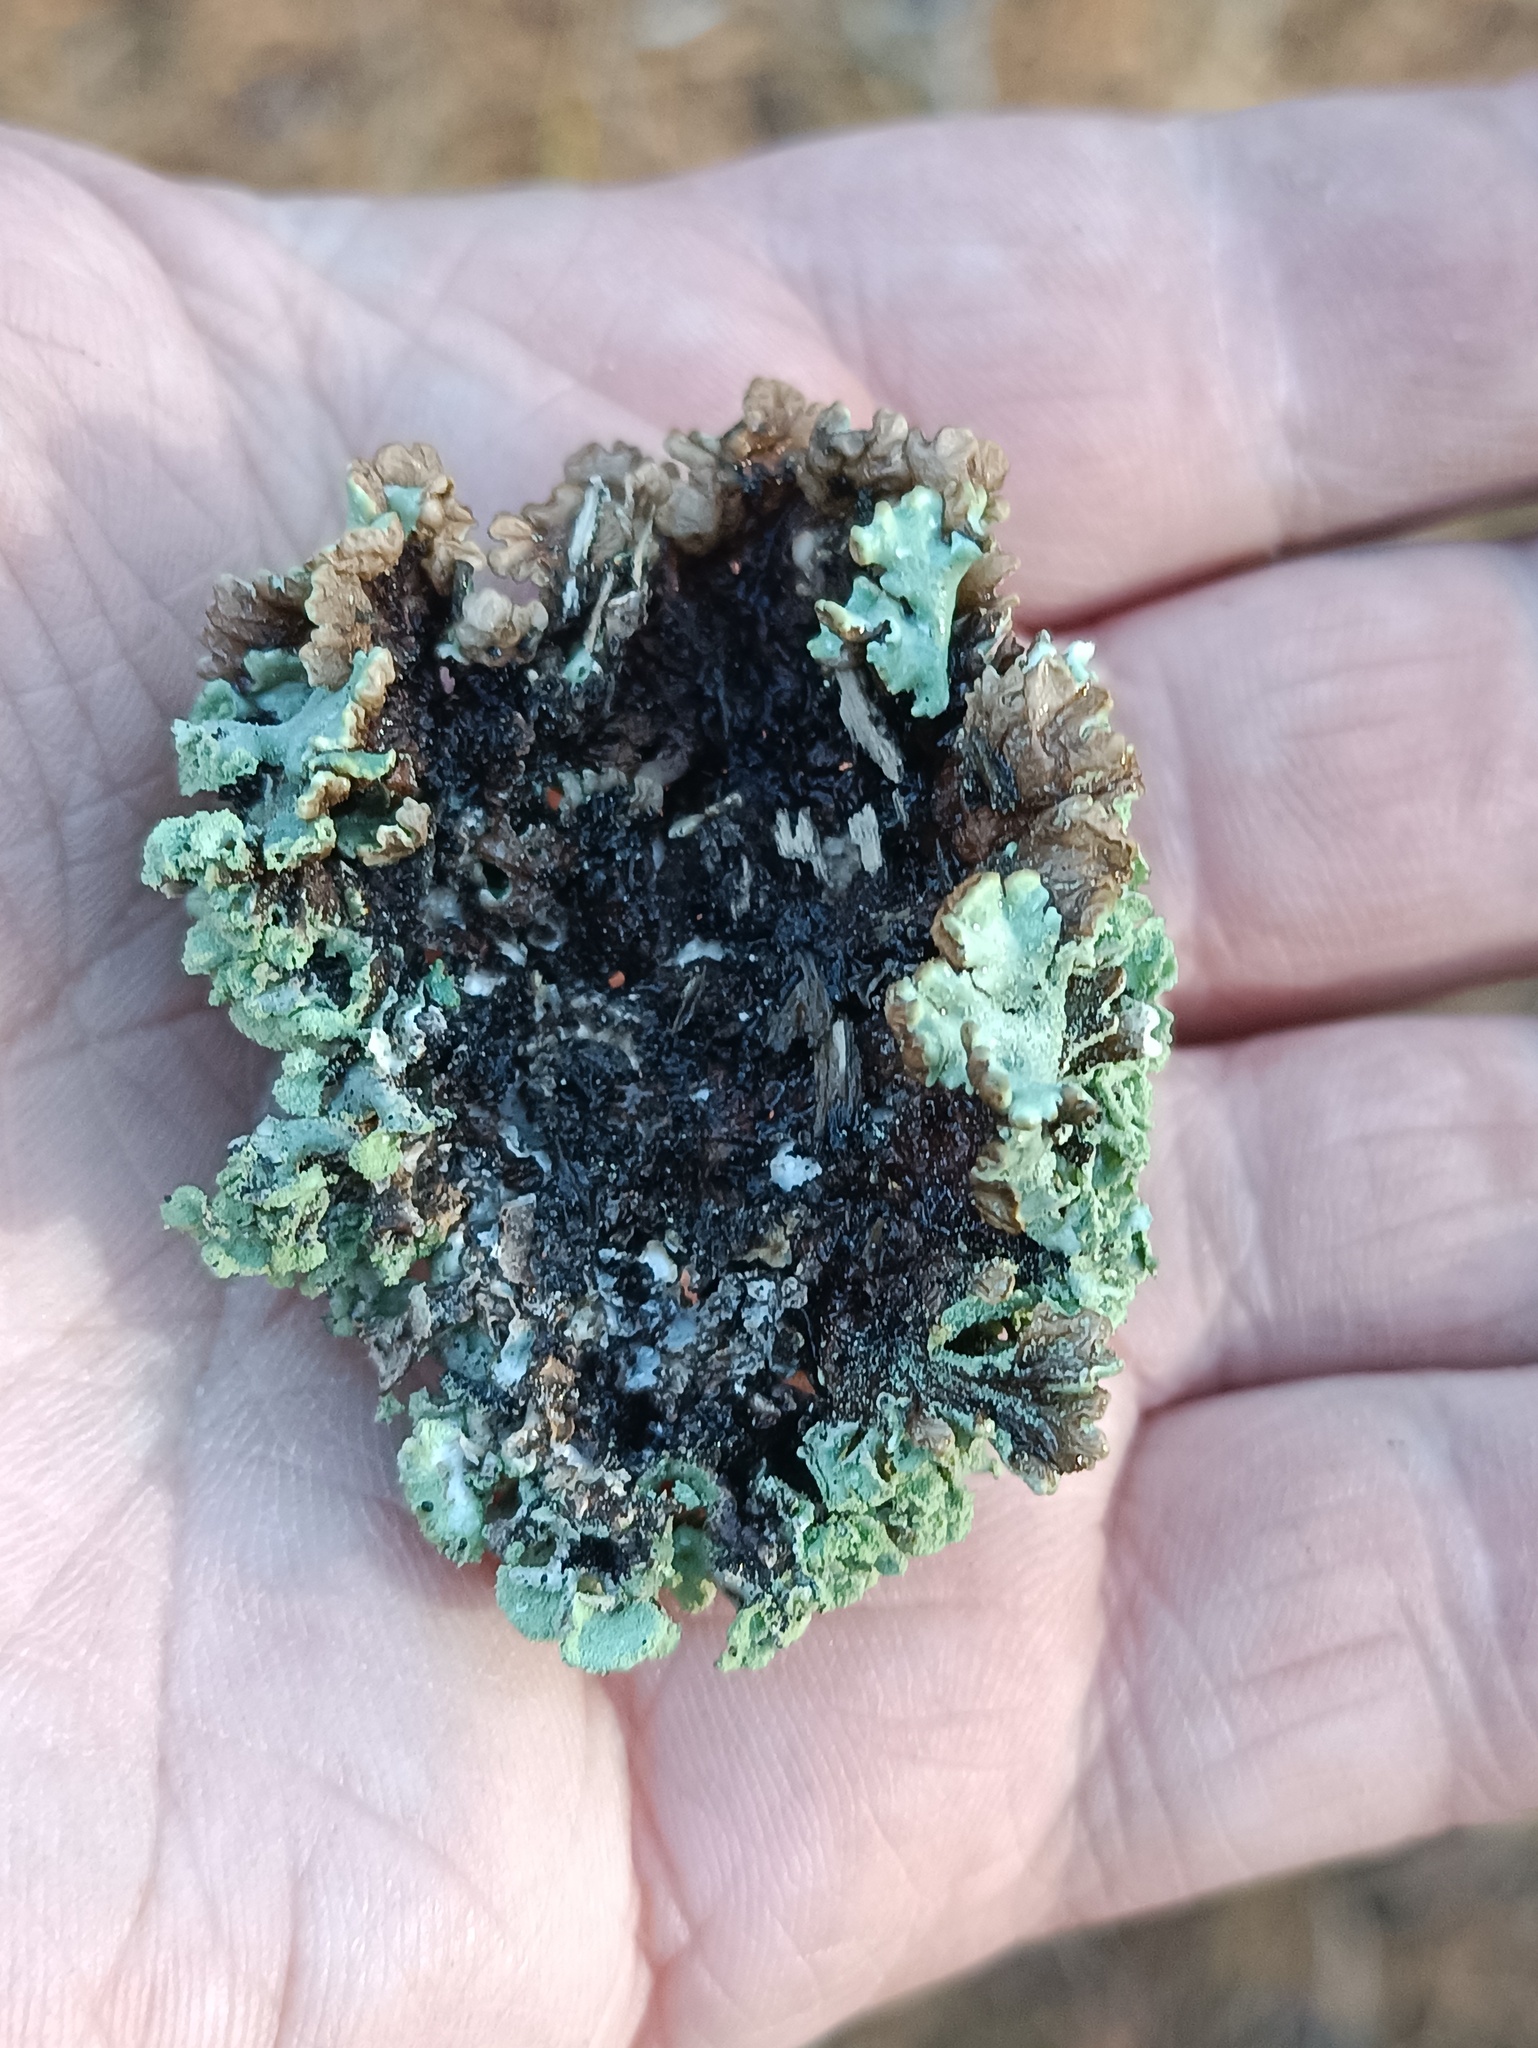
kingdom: Fungi
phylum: Ascomycota
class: Lecanoromycetes
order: Lecanorales
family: Parmeliaceae
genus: Hypogymnia
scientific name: Hypogymnia physodes
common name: Dark crottle
